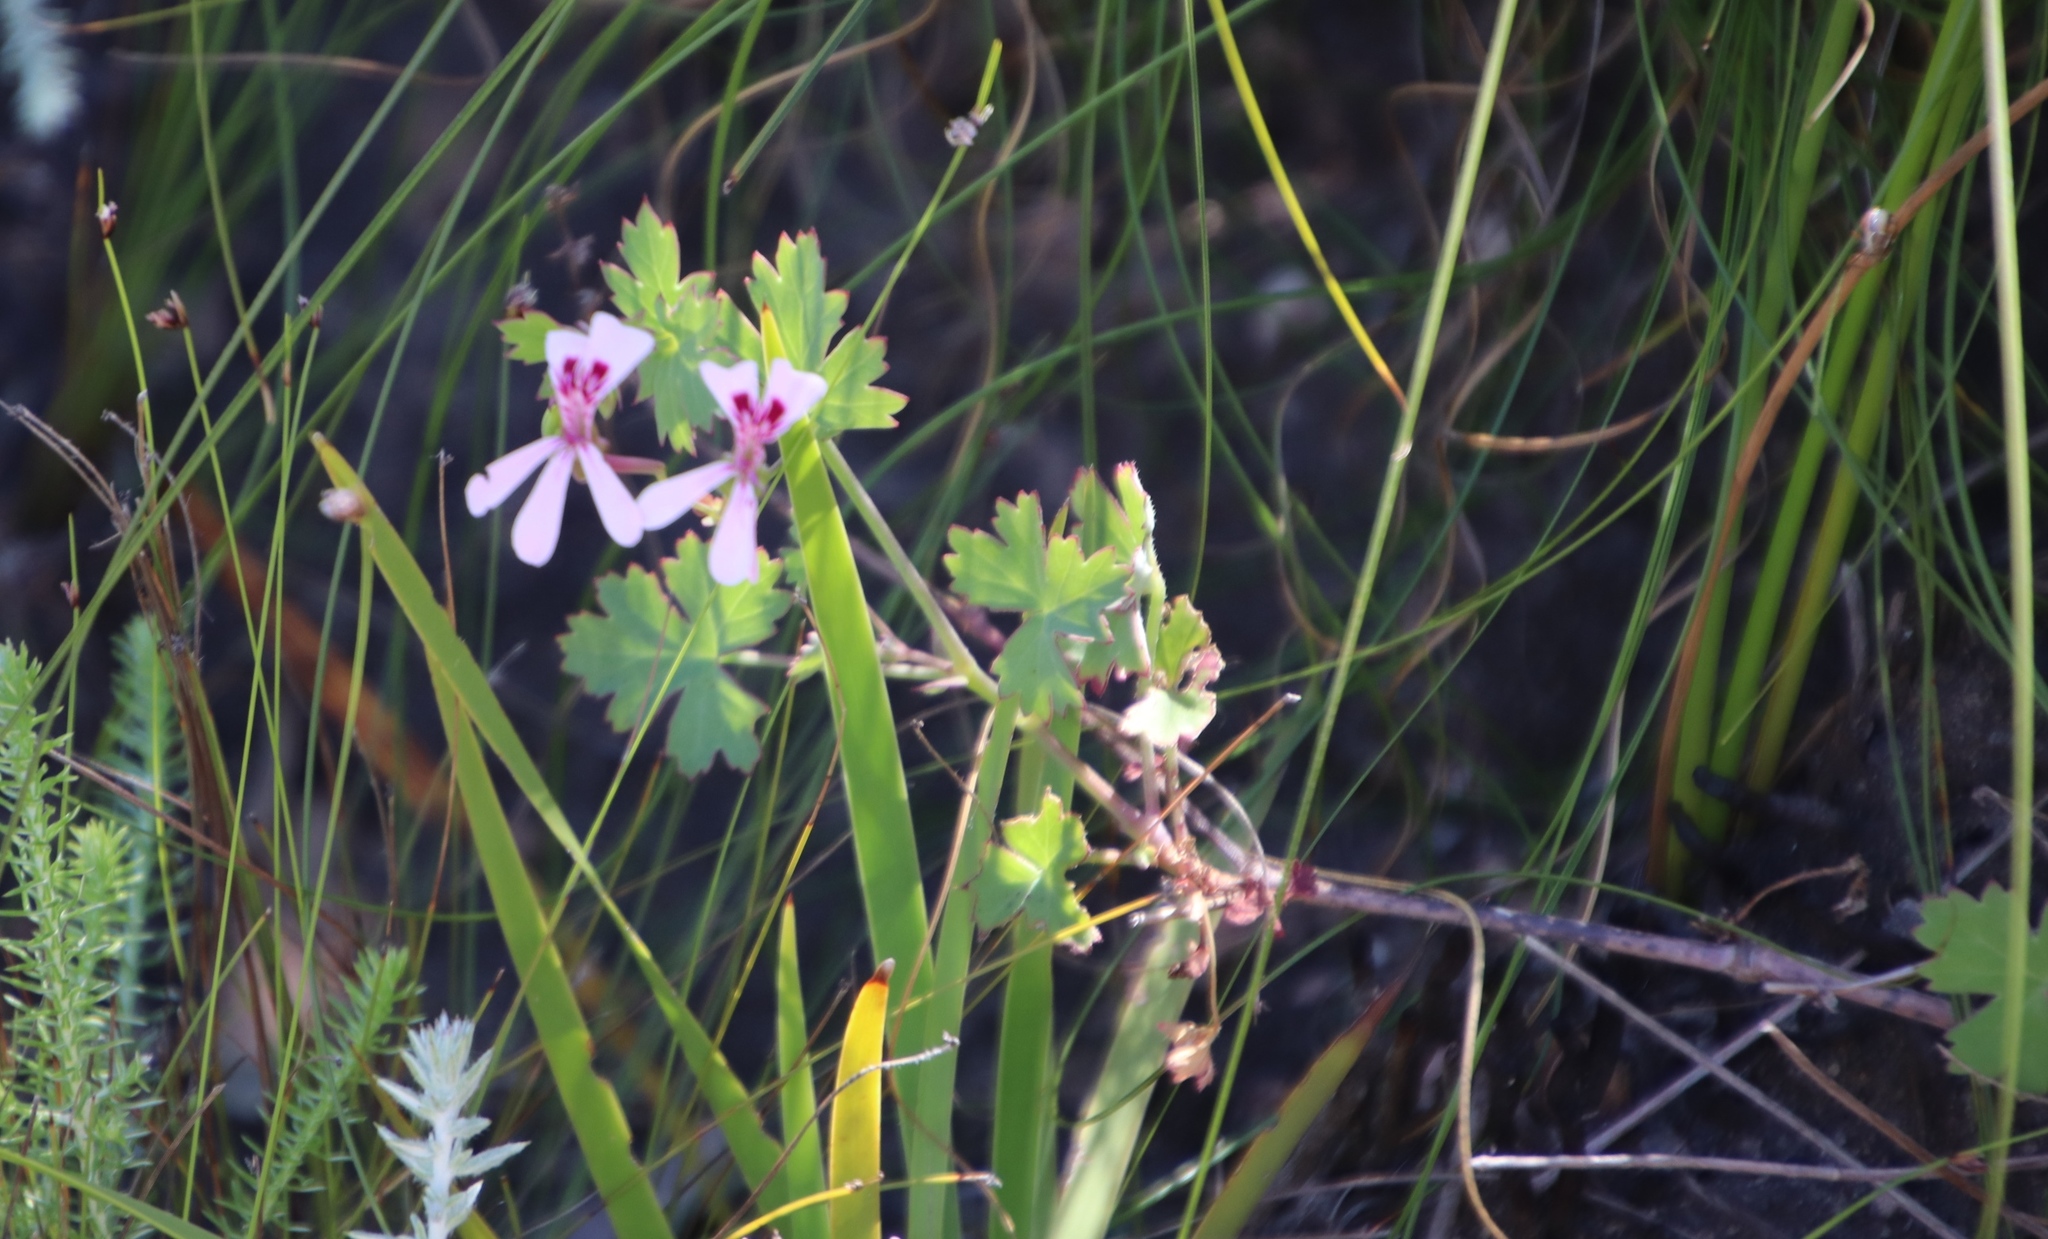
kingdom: Plantae
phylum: Tracheophyta
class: Magnoliopsida
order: Geraniales
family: Geraniaceae
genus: Pelargonium
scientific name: Pelargonium patulum
